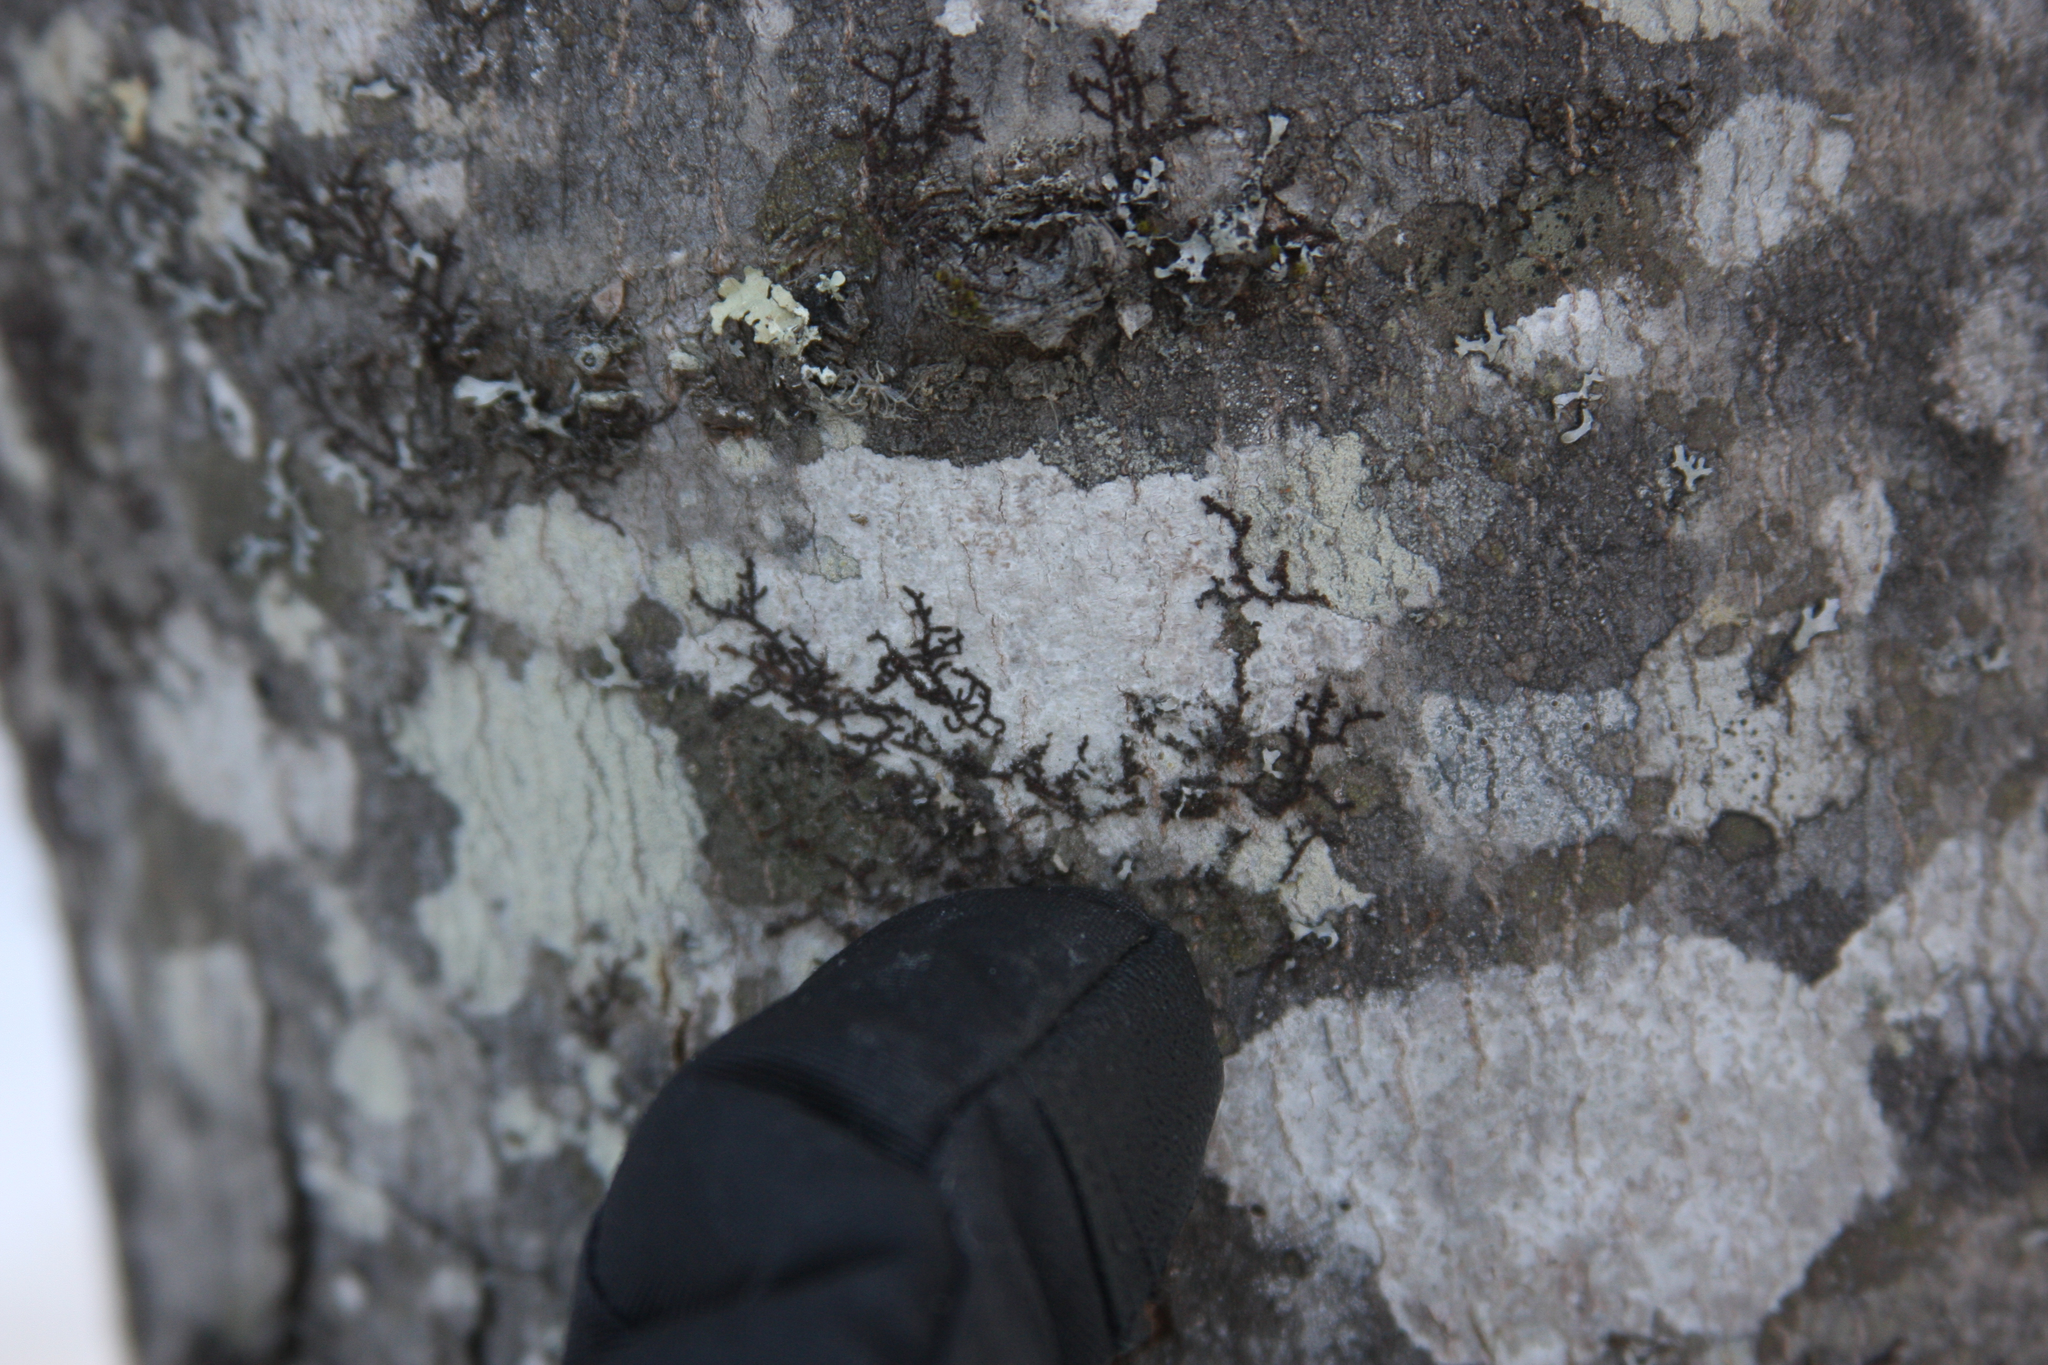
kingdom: Plantae
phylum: Marchantiophyta
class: Jungermanniopsida
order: Porellales
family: Frullaniaceae
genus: Frullania
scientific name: Frullania eboracensis
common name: New york scalewort
